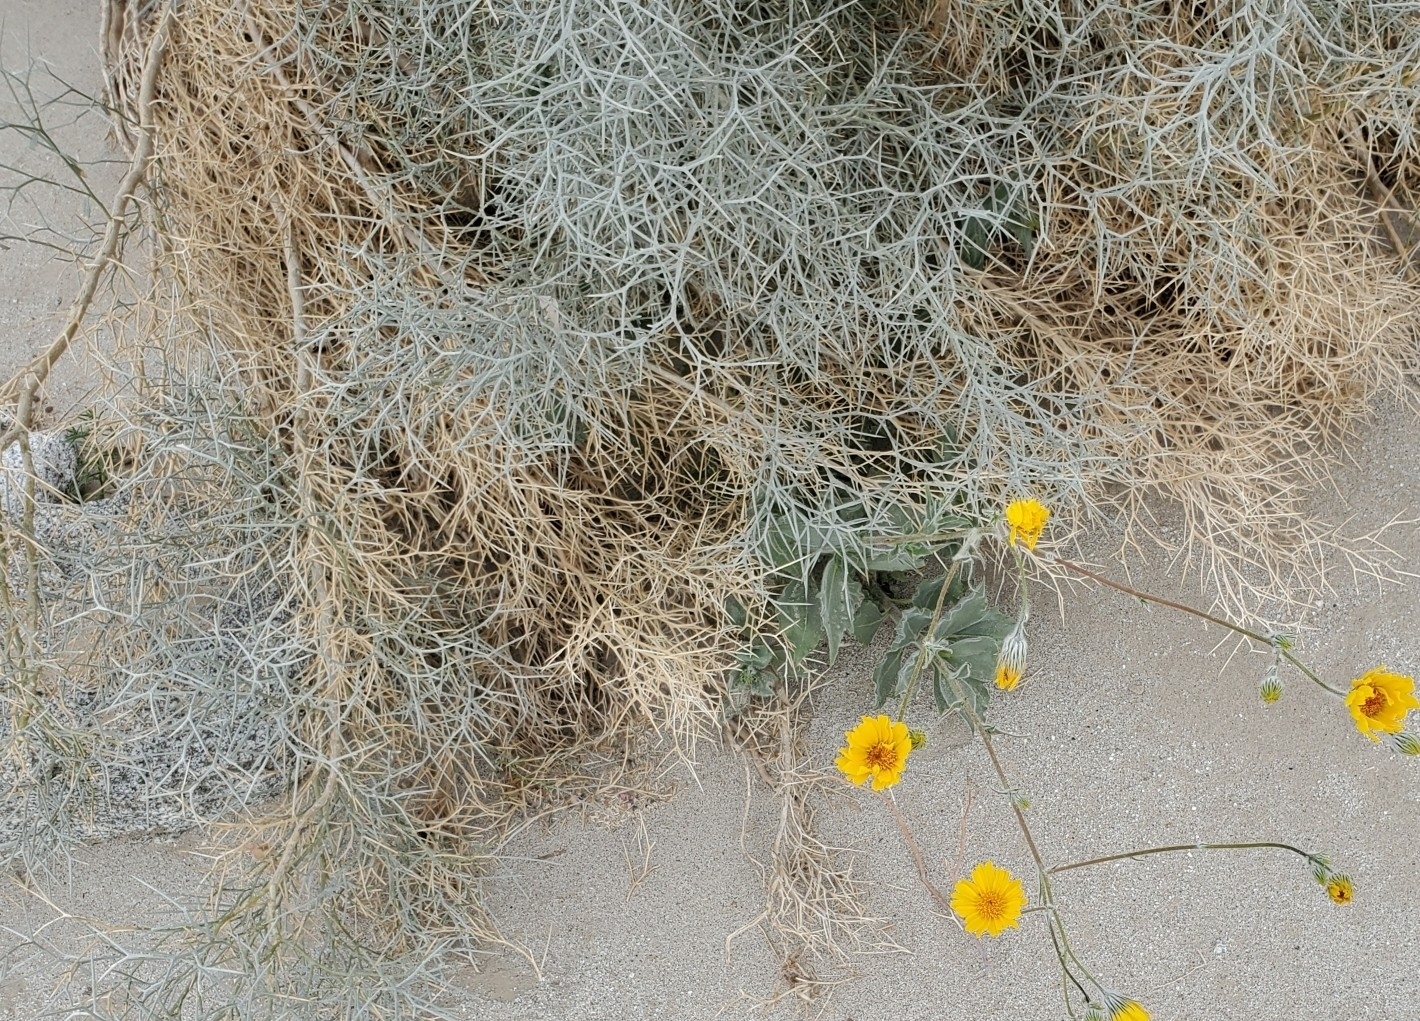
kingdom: Plantae
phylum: Tracheophyta
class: Magnoliopsida
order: Fabales
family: Fabaceae
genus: Psorothamnus
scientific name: Psorothamnus spinosus
